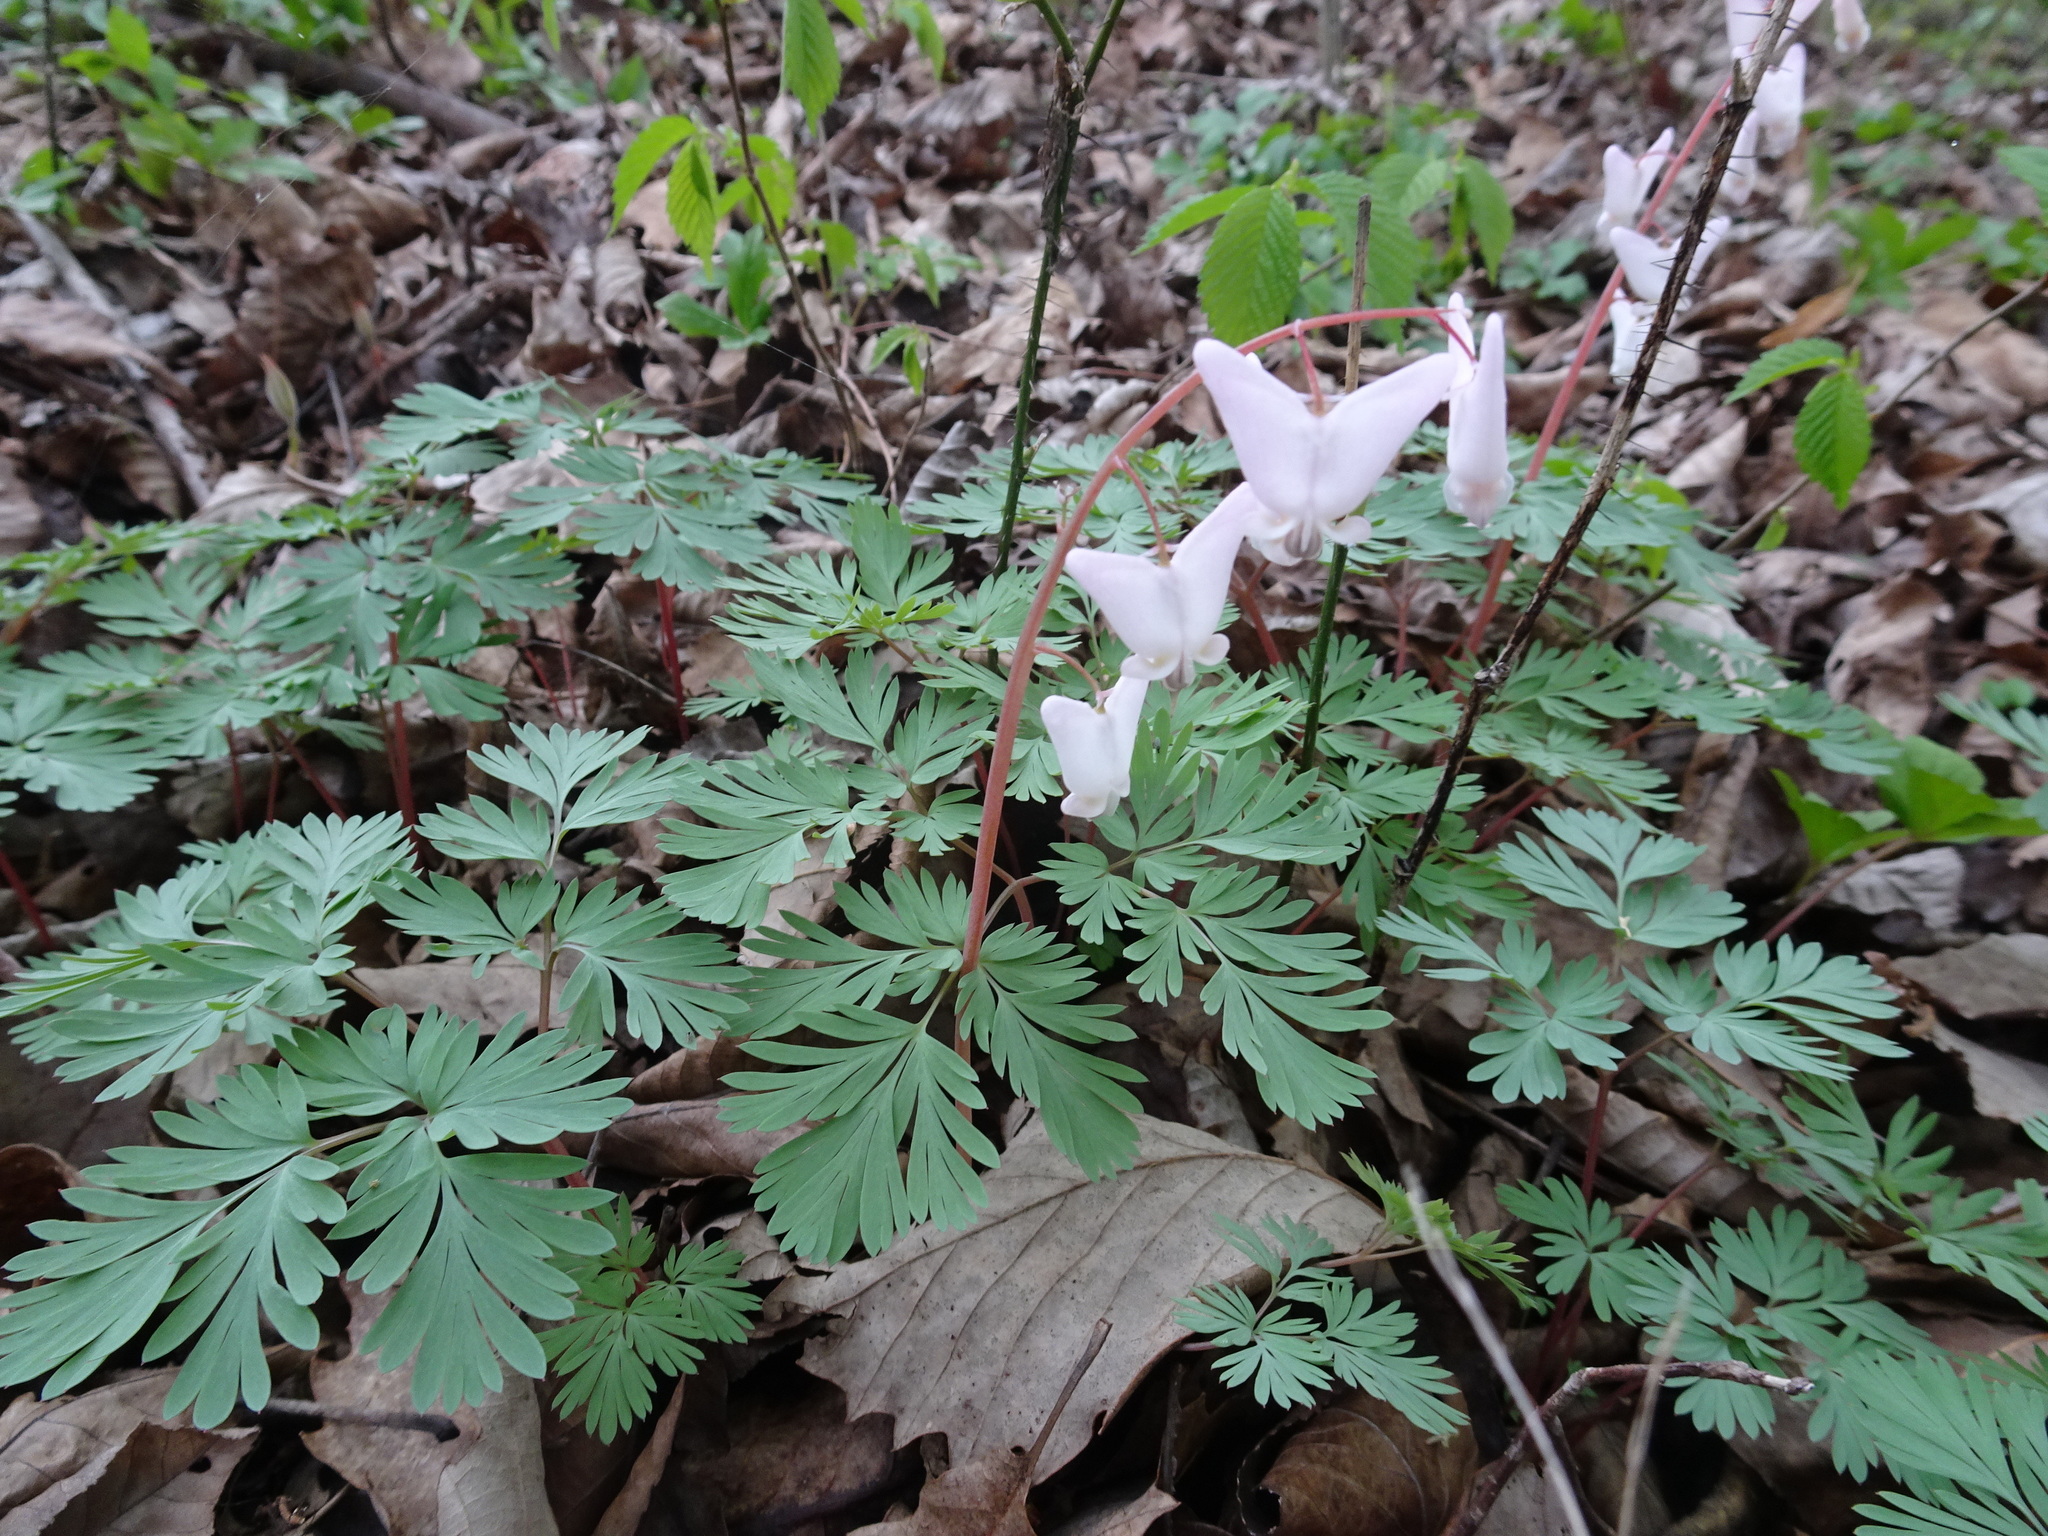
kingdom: Plantae
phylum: Tracheophyta
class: Magnoliopsida
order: Ranunculales
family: Papaveraceae
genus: Dicentra
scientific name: Dicentra cucullaria
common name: Dutchman's breeches
